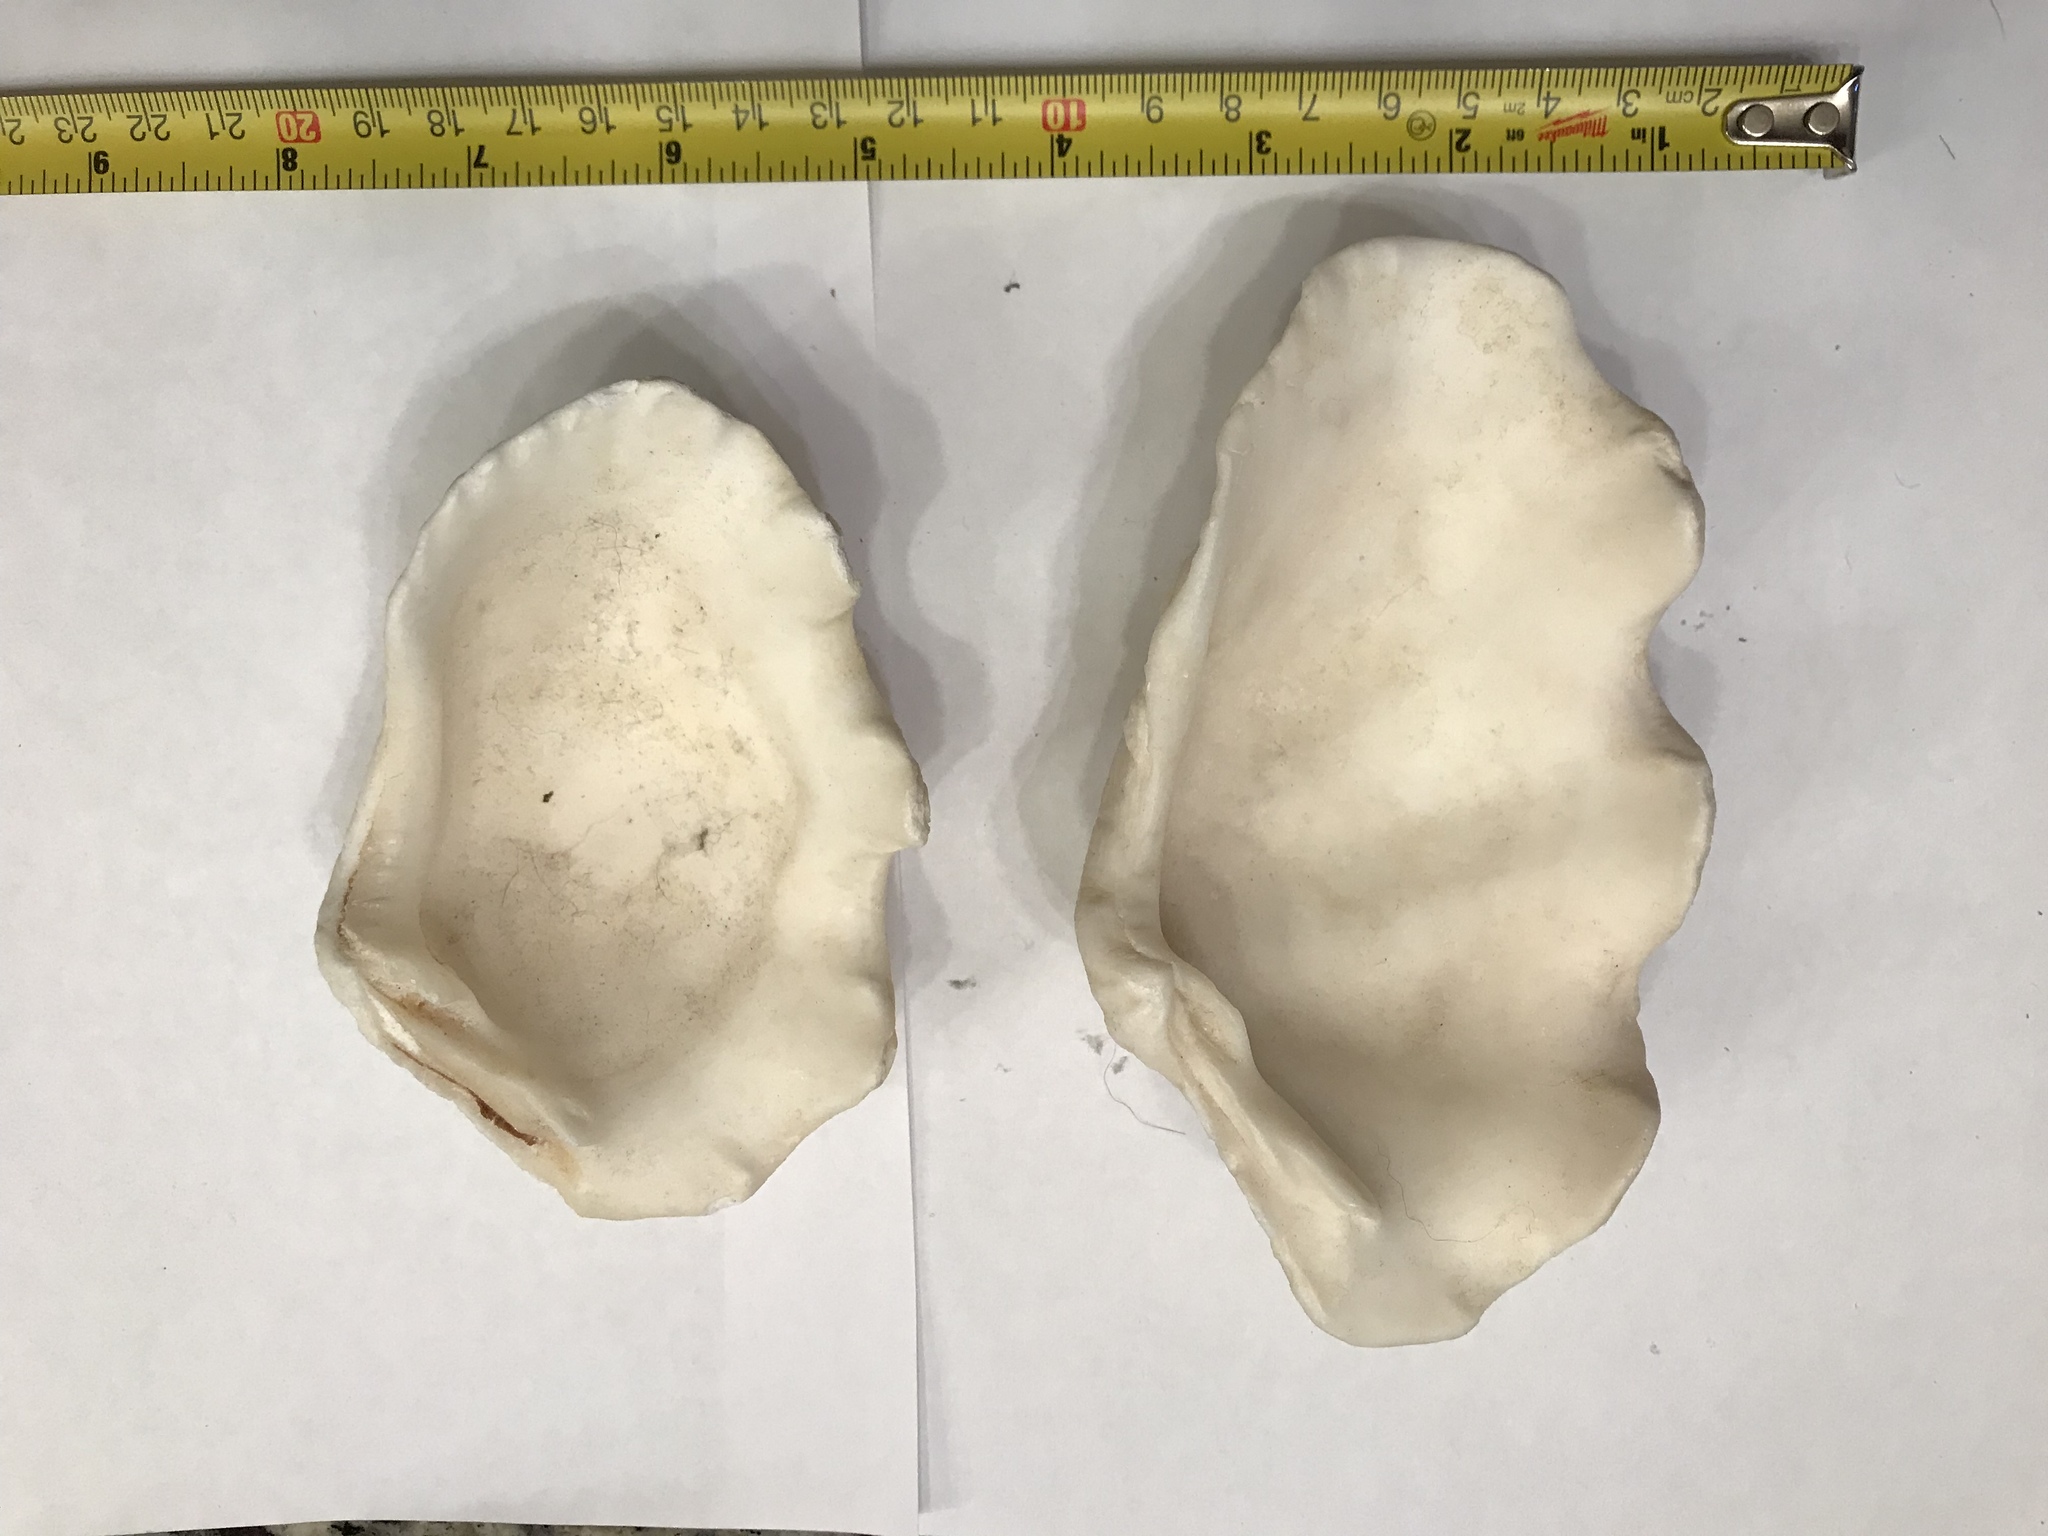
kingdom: Animalia
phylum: Mollusca
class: Bivalvia
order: Cardiida
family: Cardiidae
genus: Tridacna
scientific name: Tridacna maxima
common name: Small giant clam
